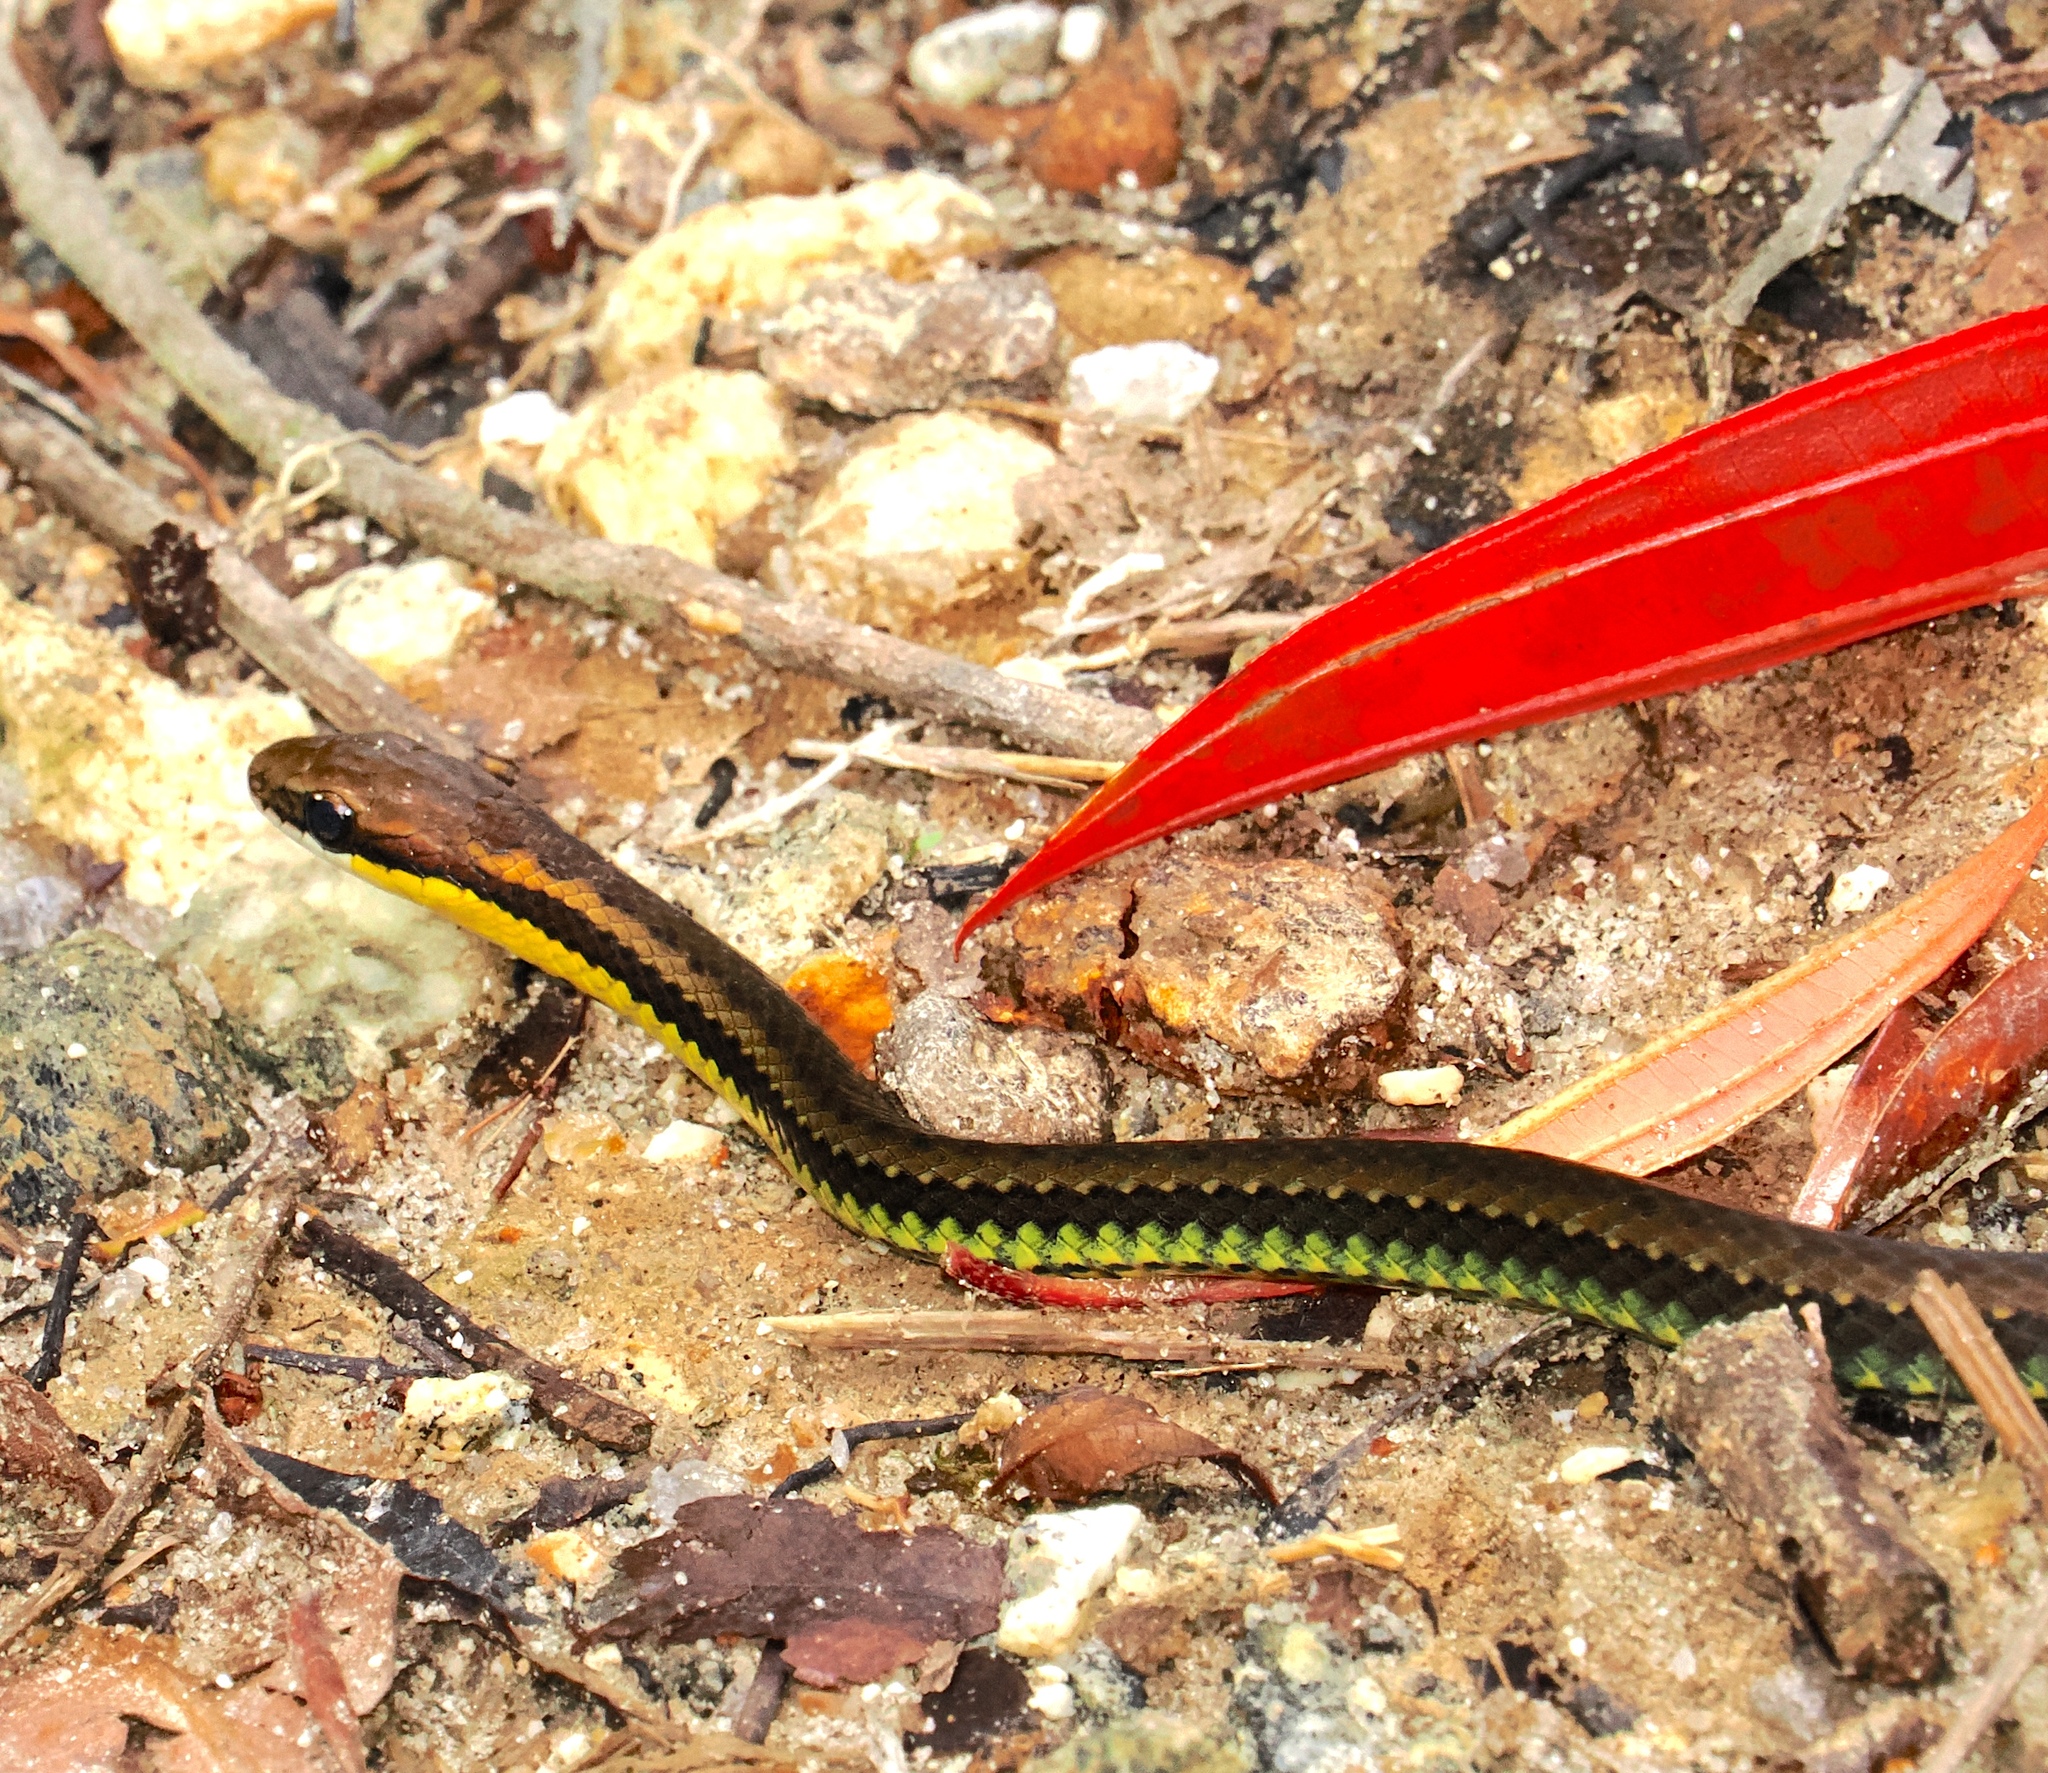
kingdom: Animalia
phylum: Chordata
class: Squamata
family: Colubridae
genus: Echinanthera
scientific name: Echinanthera cephalostriata
